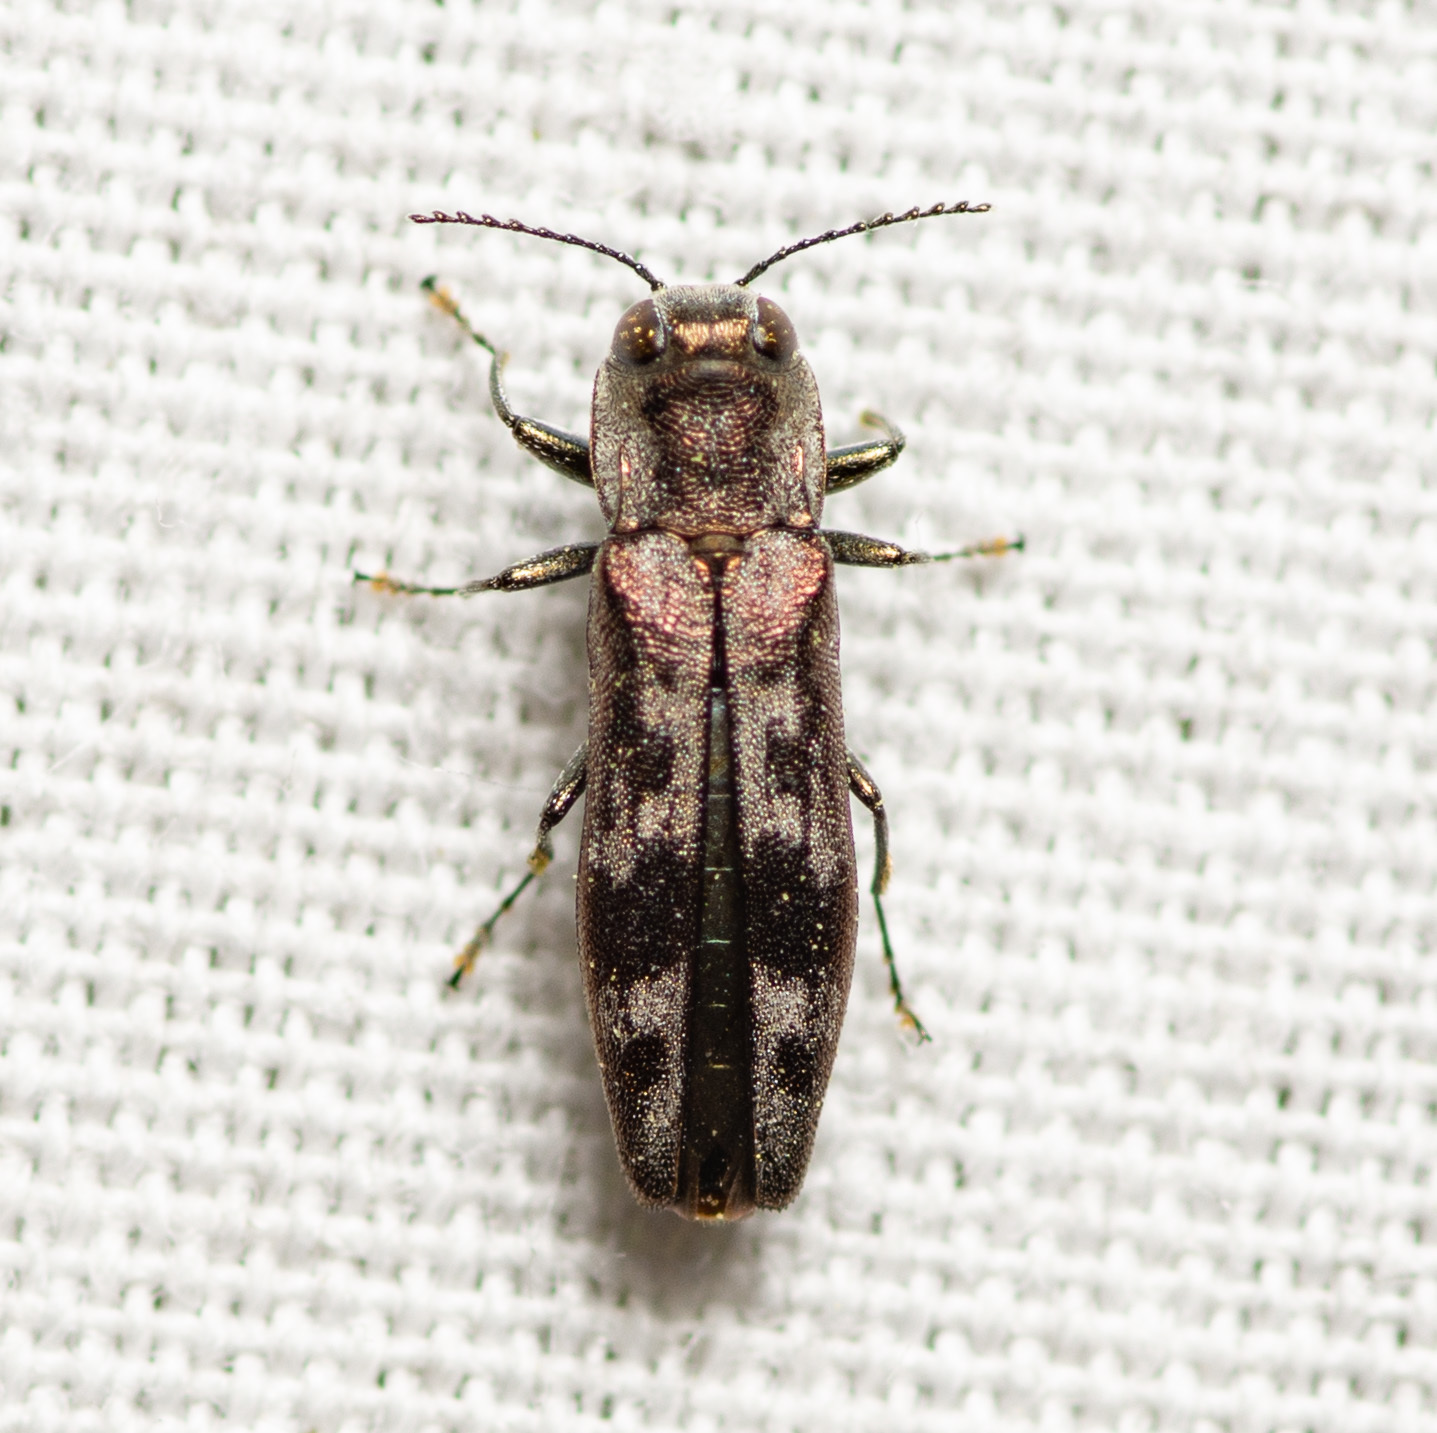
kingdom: Animalia
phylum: Arthropoda
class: Insecta
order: Coleoptera
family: Buprestidae
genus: Agrilus
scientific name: Agrilus lecontei
